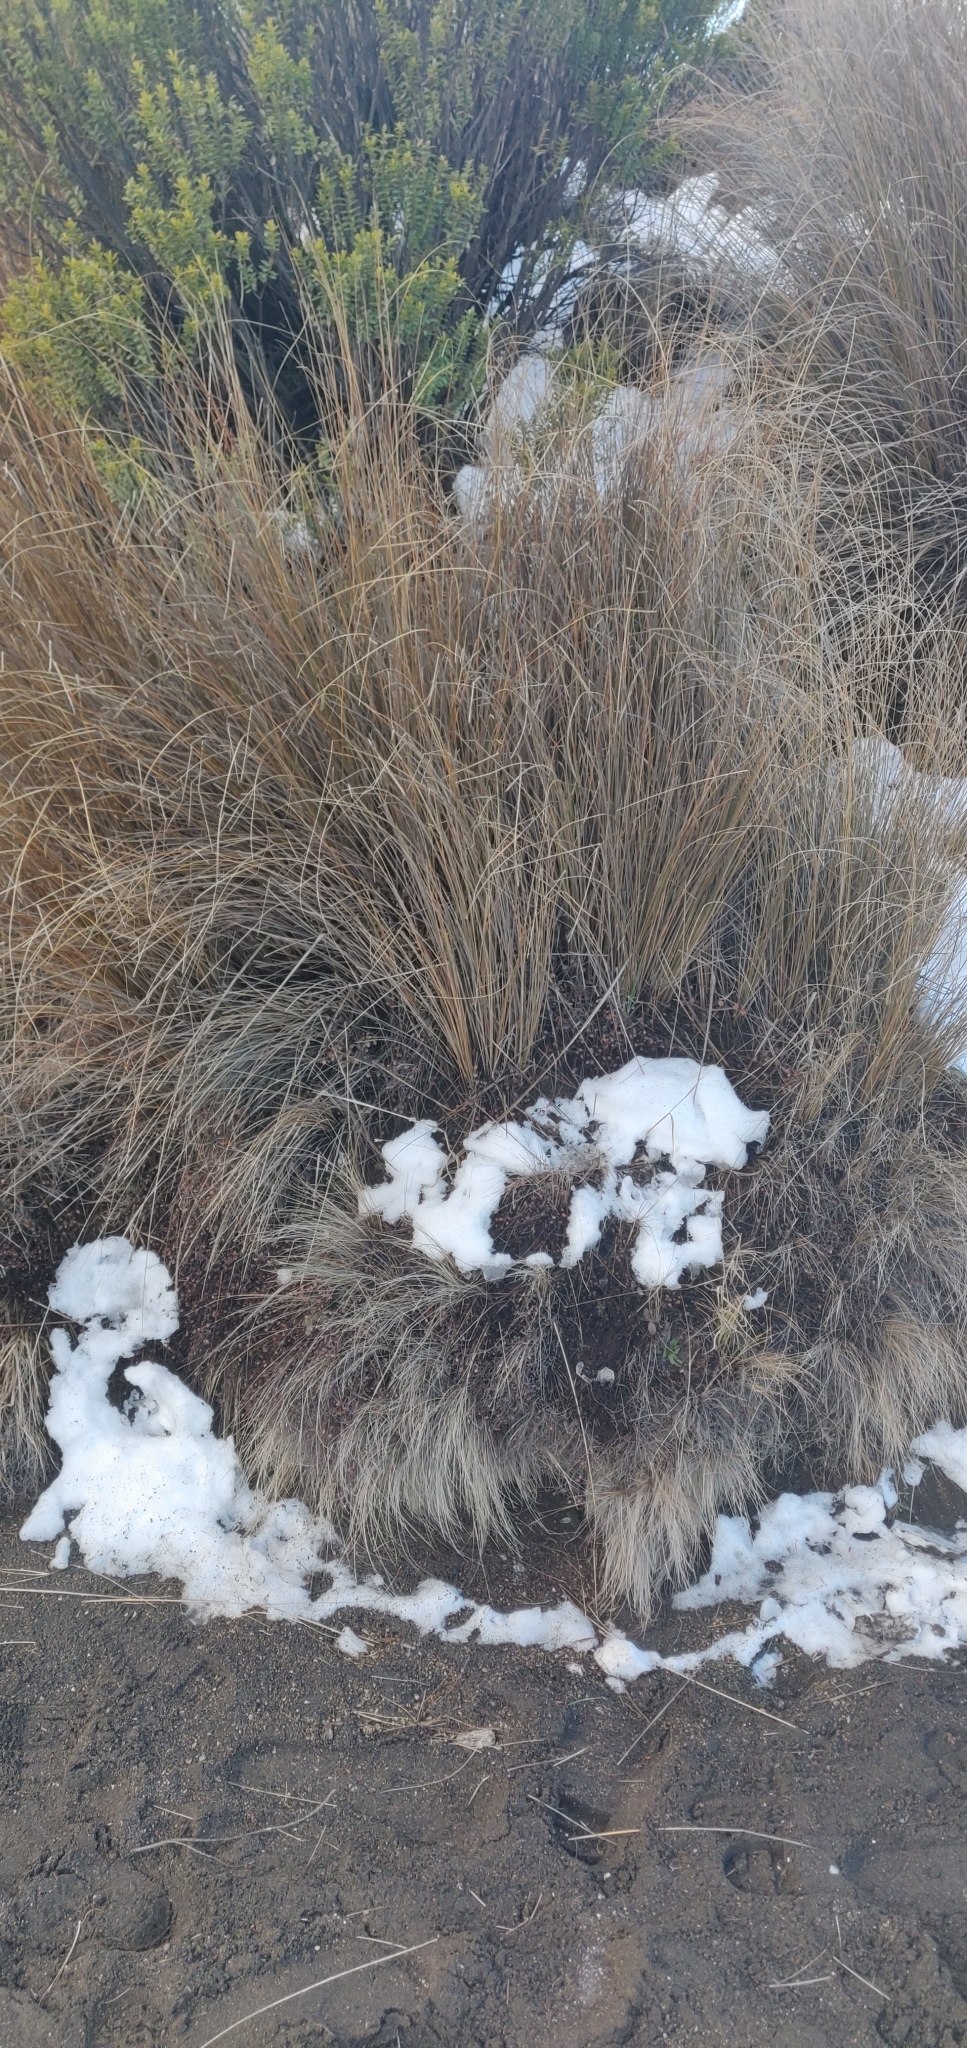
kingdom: Plantae
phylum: Tracheophyta
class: Liliopsida
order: Poales
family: Poaceae
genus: Chionochloa
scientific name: Chionochloa rubra
